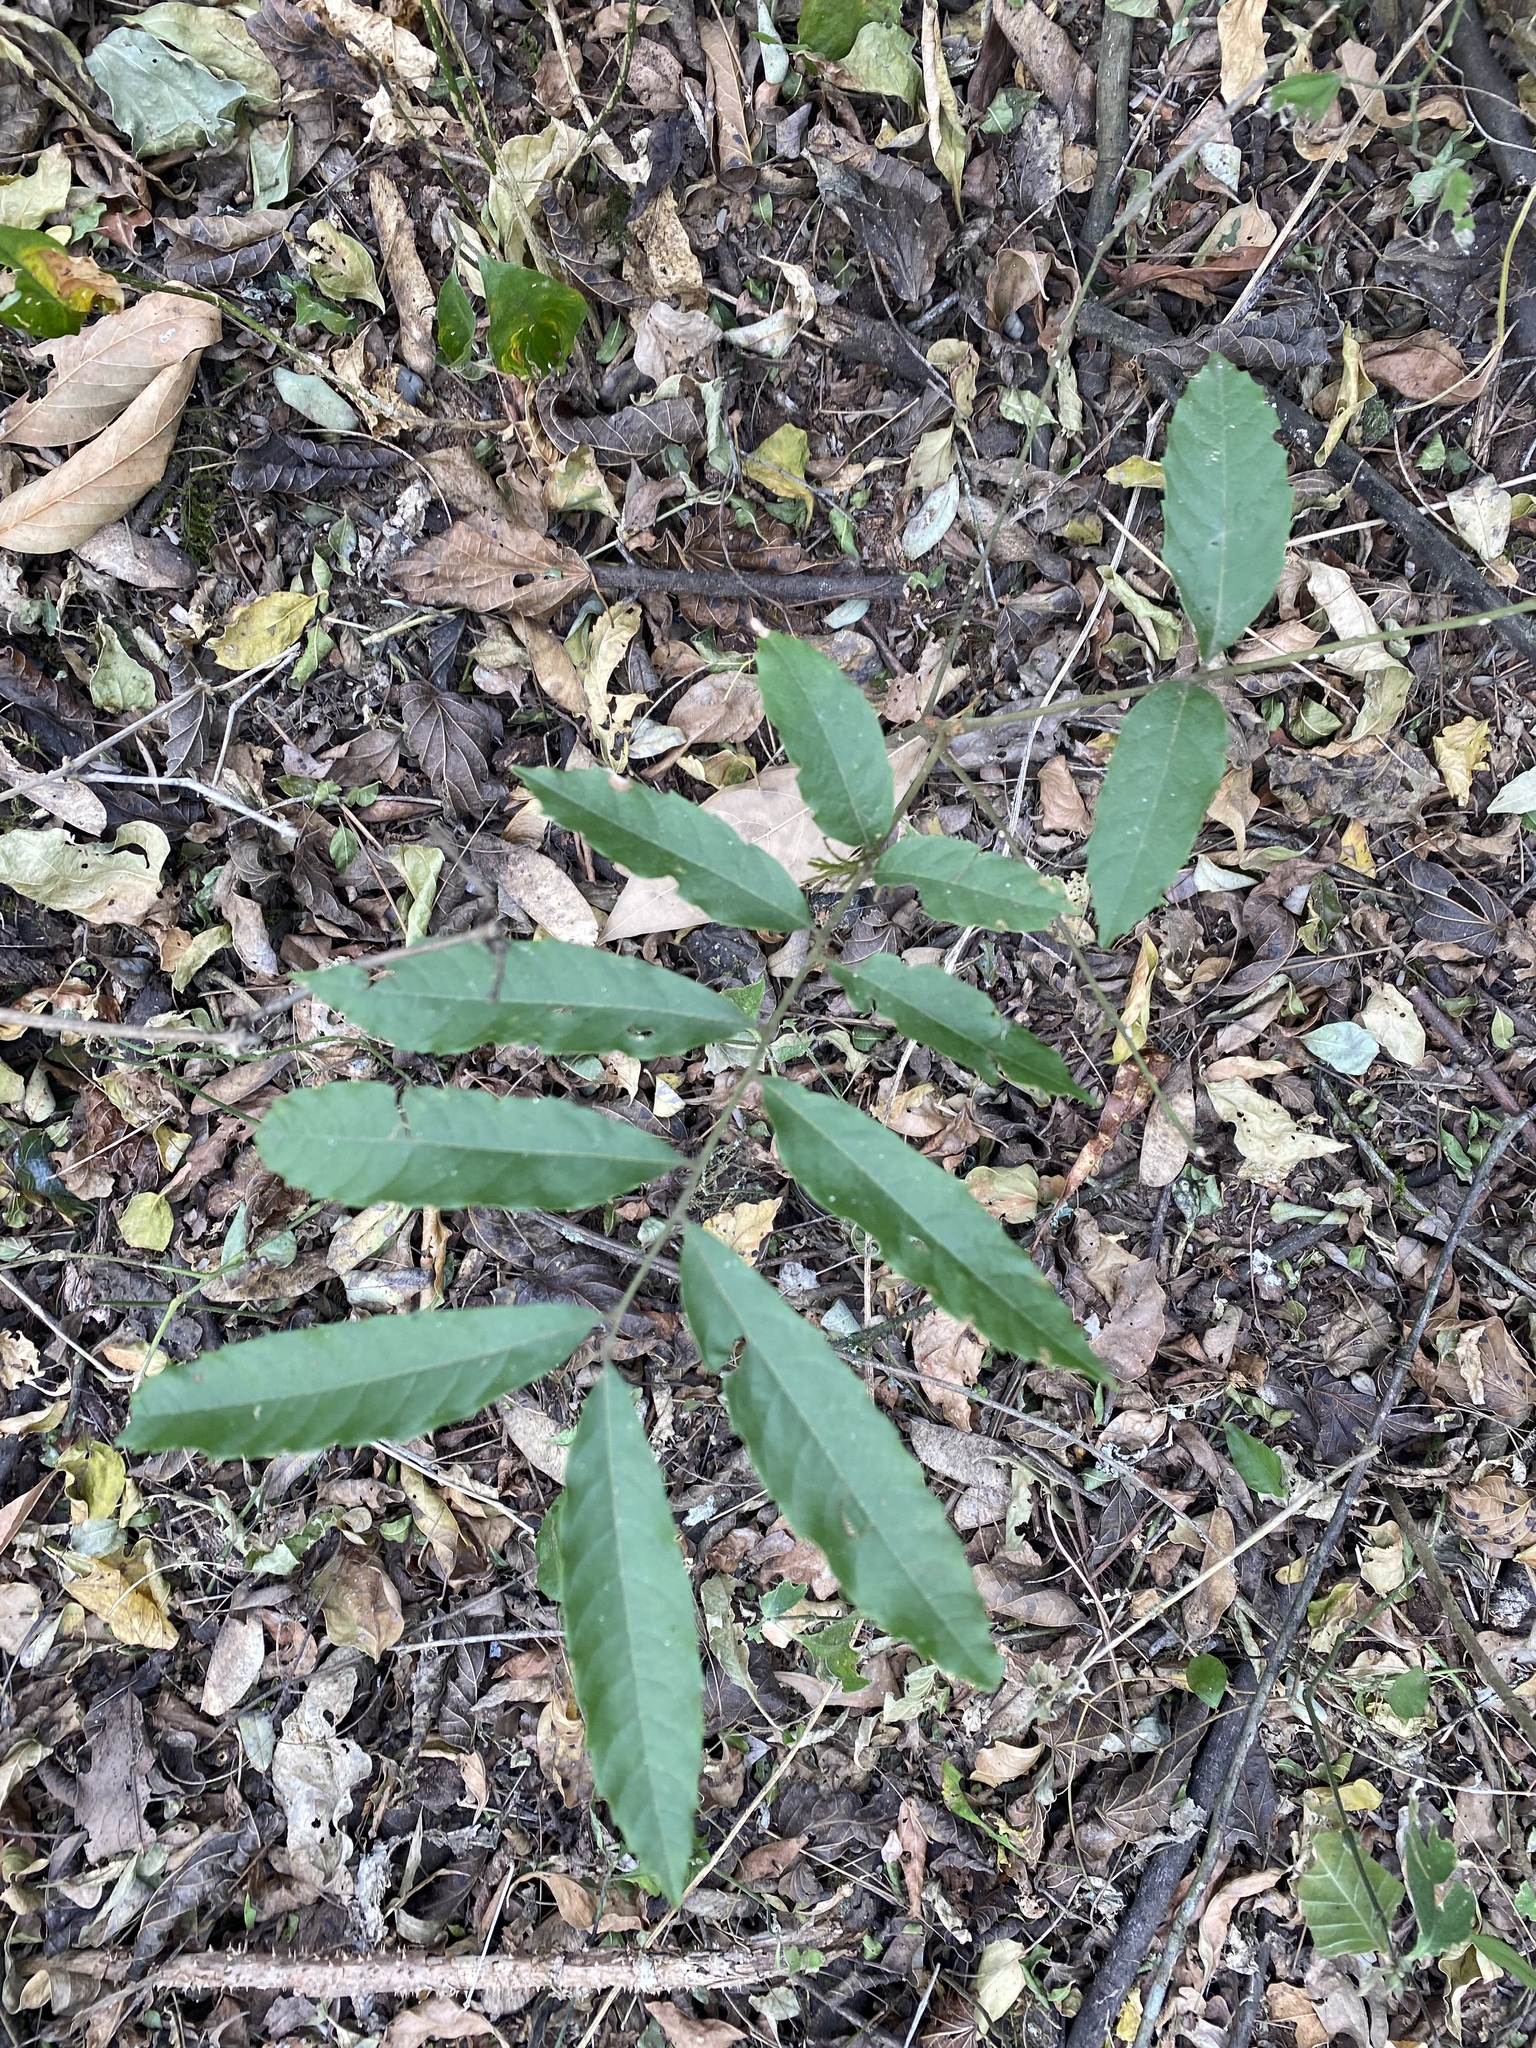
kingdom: Plantae
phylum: Tracheophyta
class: Magnoliopsida
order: Sapindales
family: Sapindaceae
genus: Cupania
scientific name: Cupania vernalis
